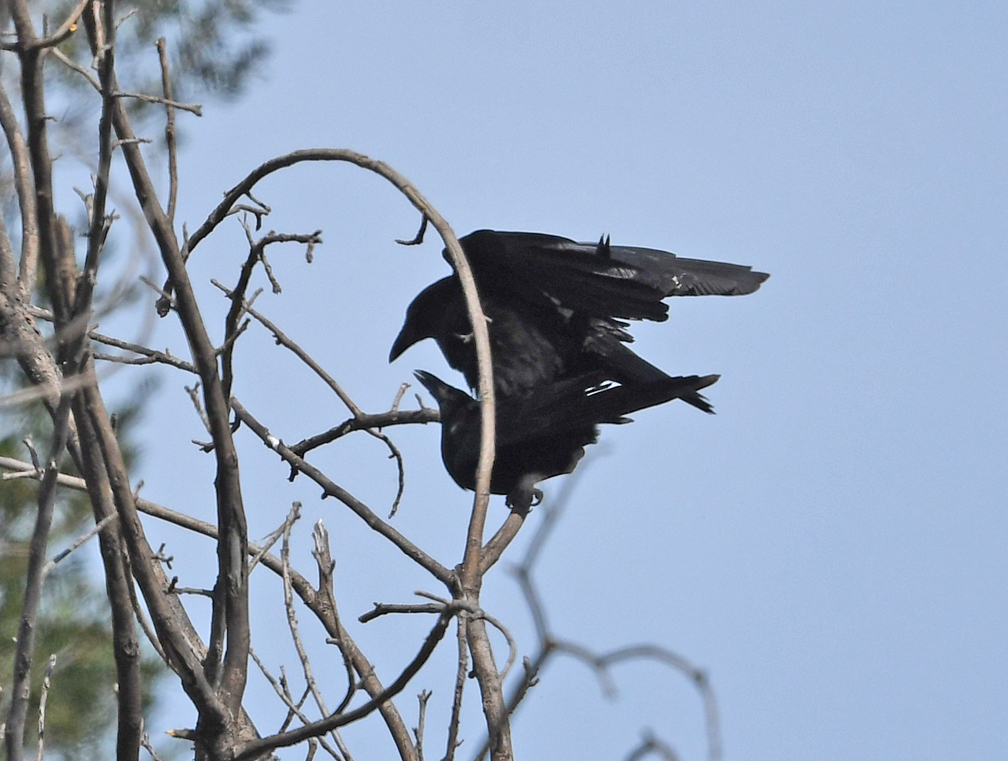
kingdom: Animalia
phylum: Chordata
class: Aves
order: Passeriformes
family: Corvidae
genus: Corvus
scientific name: Corvus brachyrhynchos
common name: American crow
